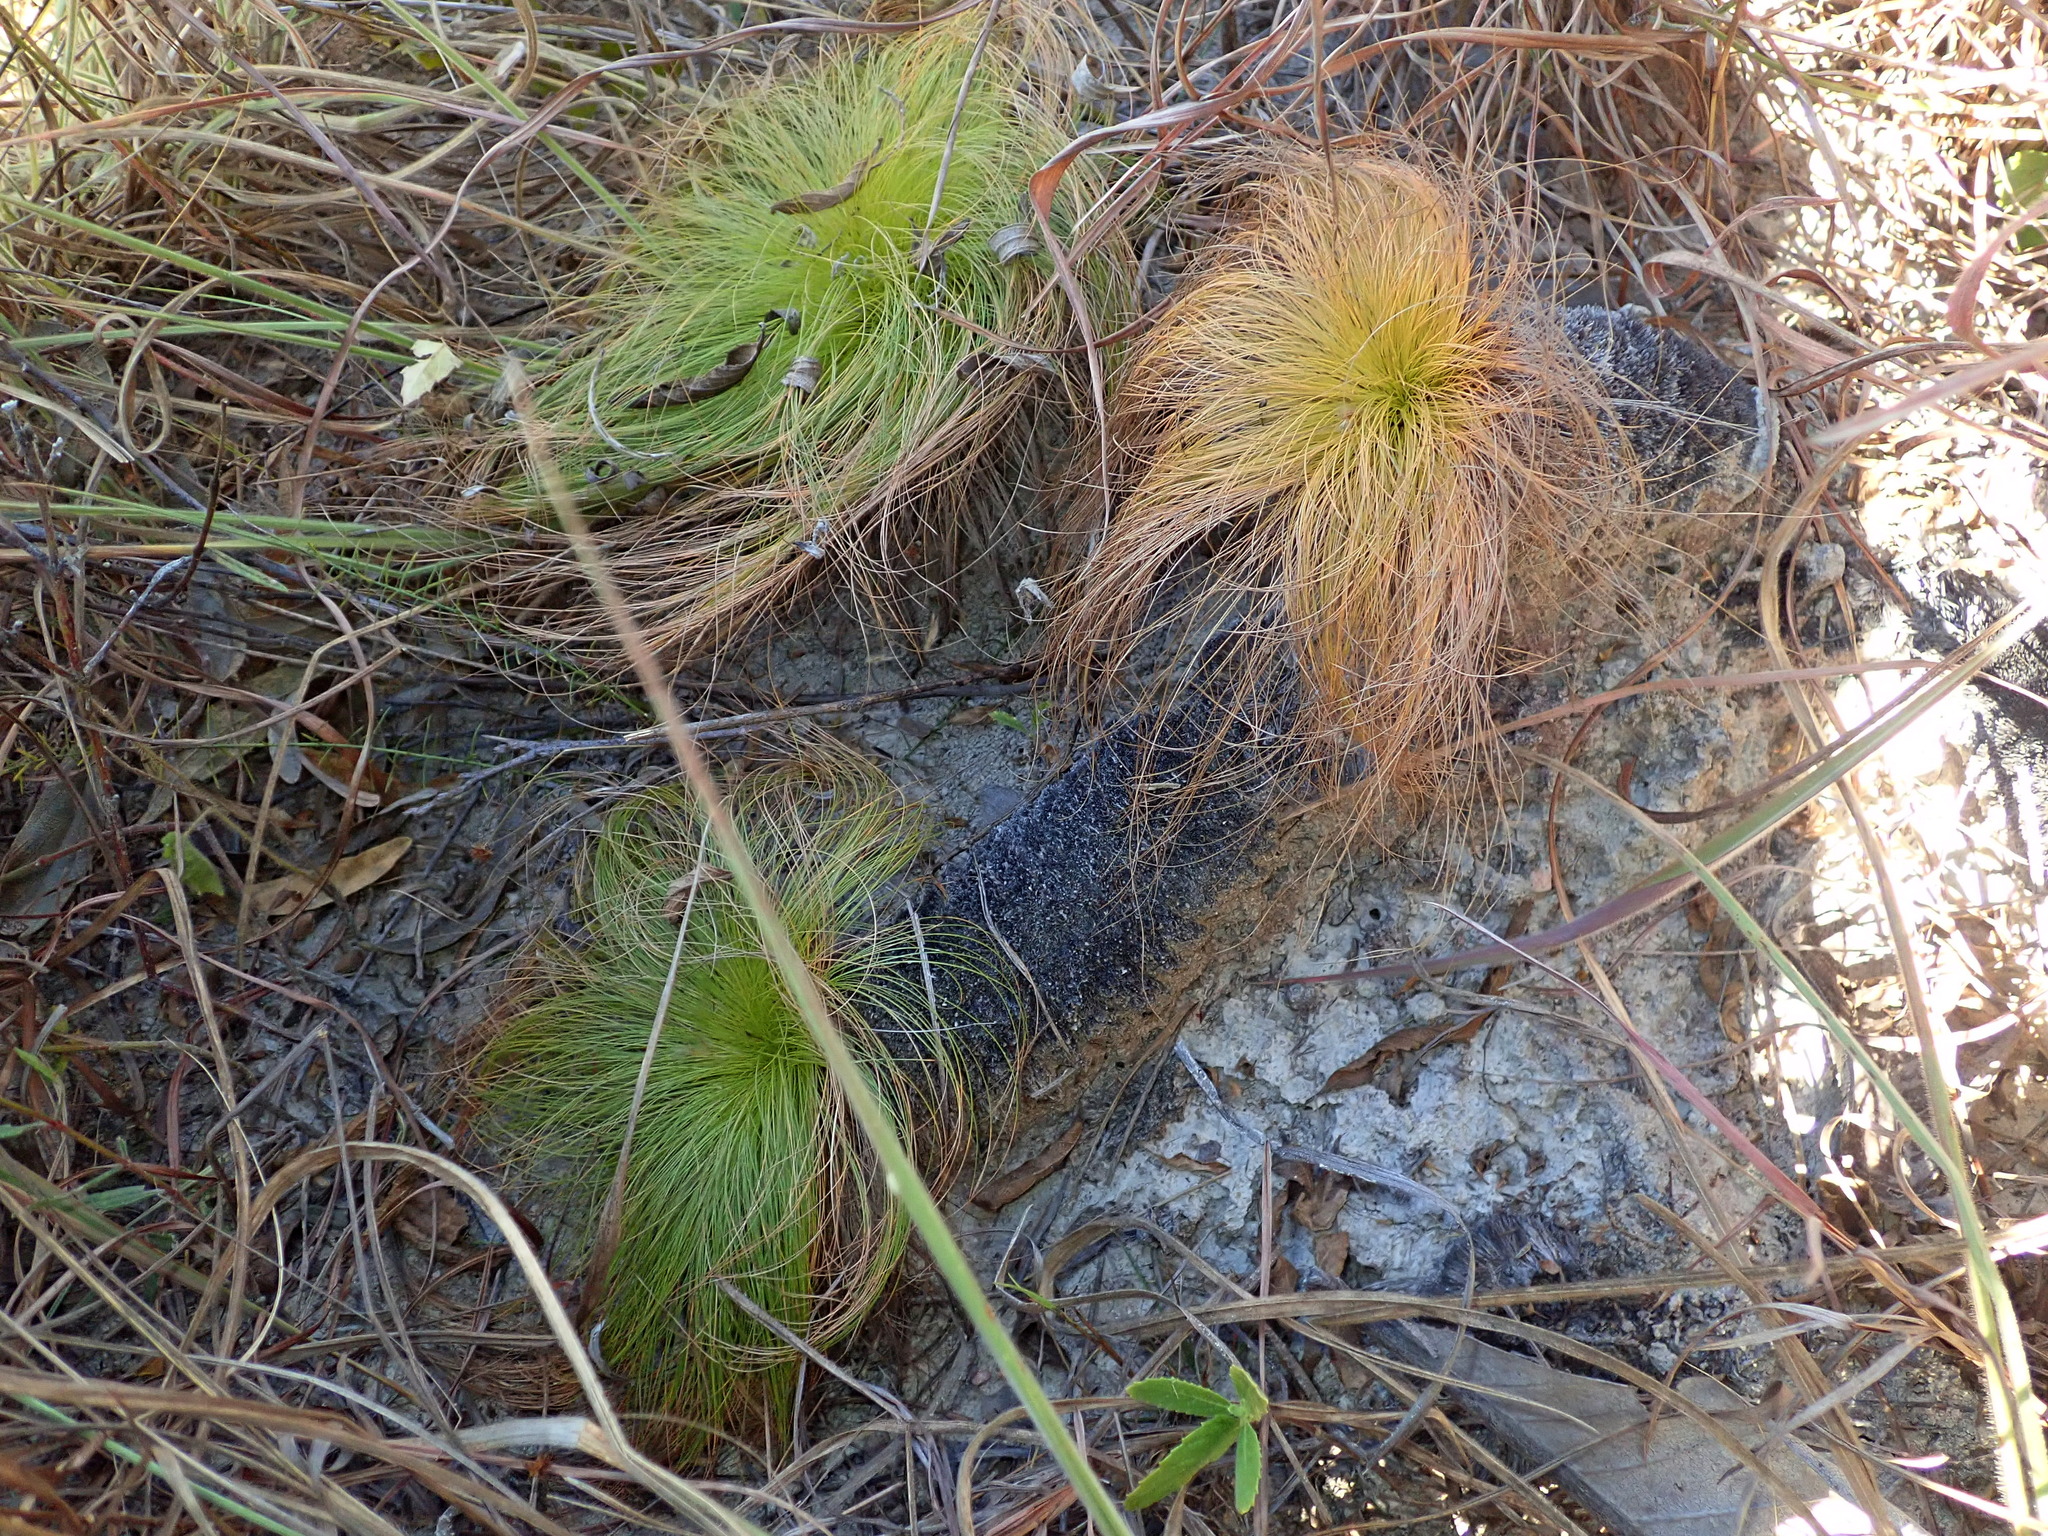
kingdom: Plantae
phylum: Tracheophyta
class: Liliopsida
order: Poales
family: Cyperaceae
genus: Bulbostylis
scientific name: Bulbostylis paradoxa
